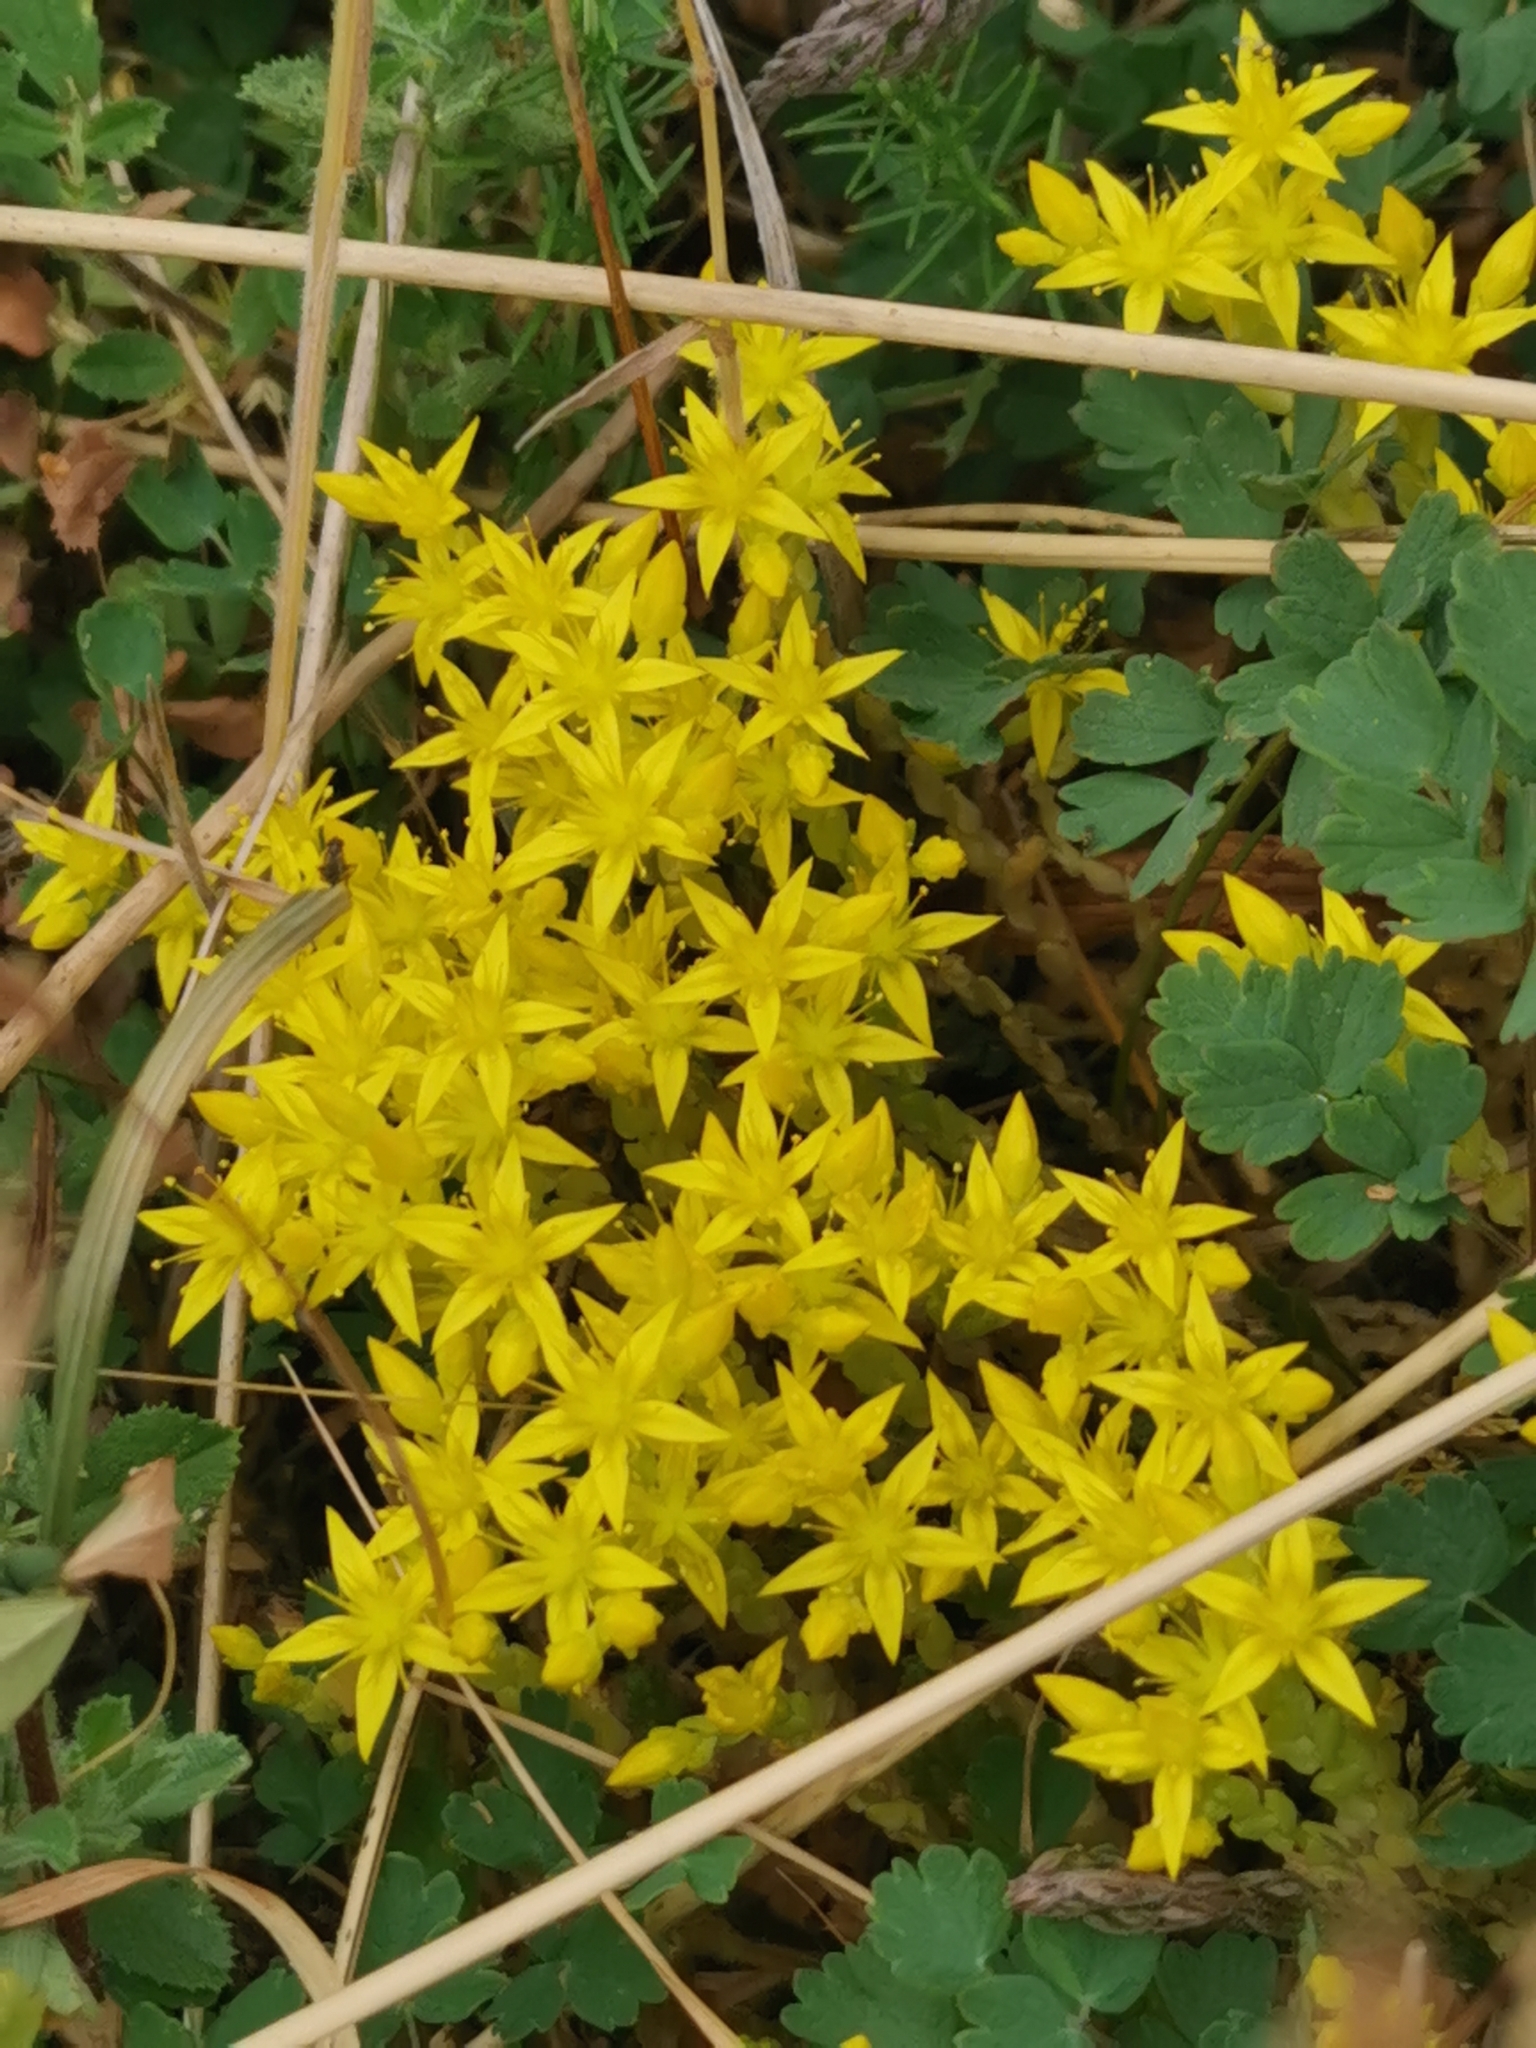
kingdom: Plantae
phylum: Tracheophyta
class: Magnoliopsida
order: Saxifragales
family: Crassulaceae
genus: Sedum
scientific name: Sedum acre
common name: Biting stonecrop
